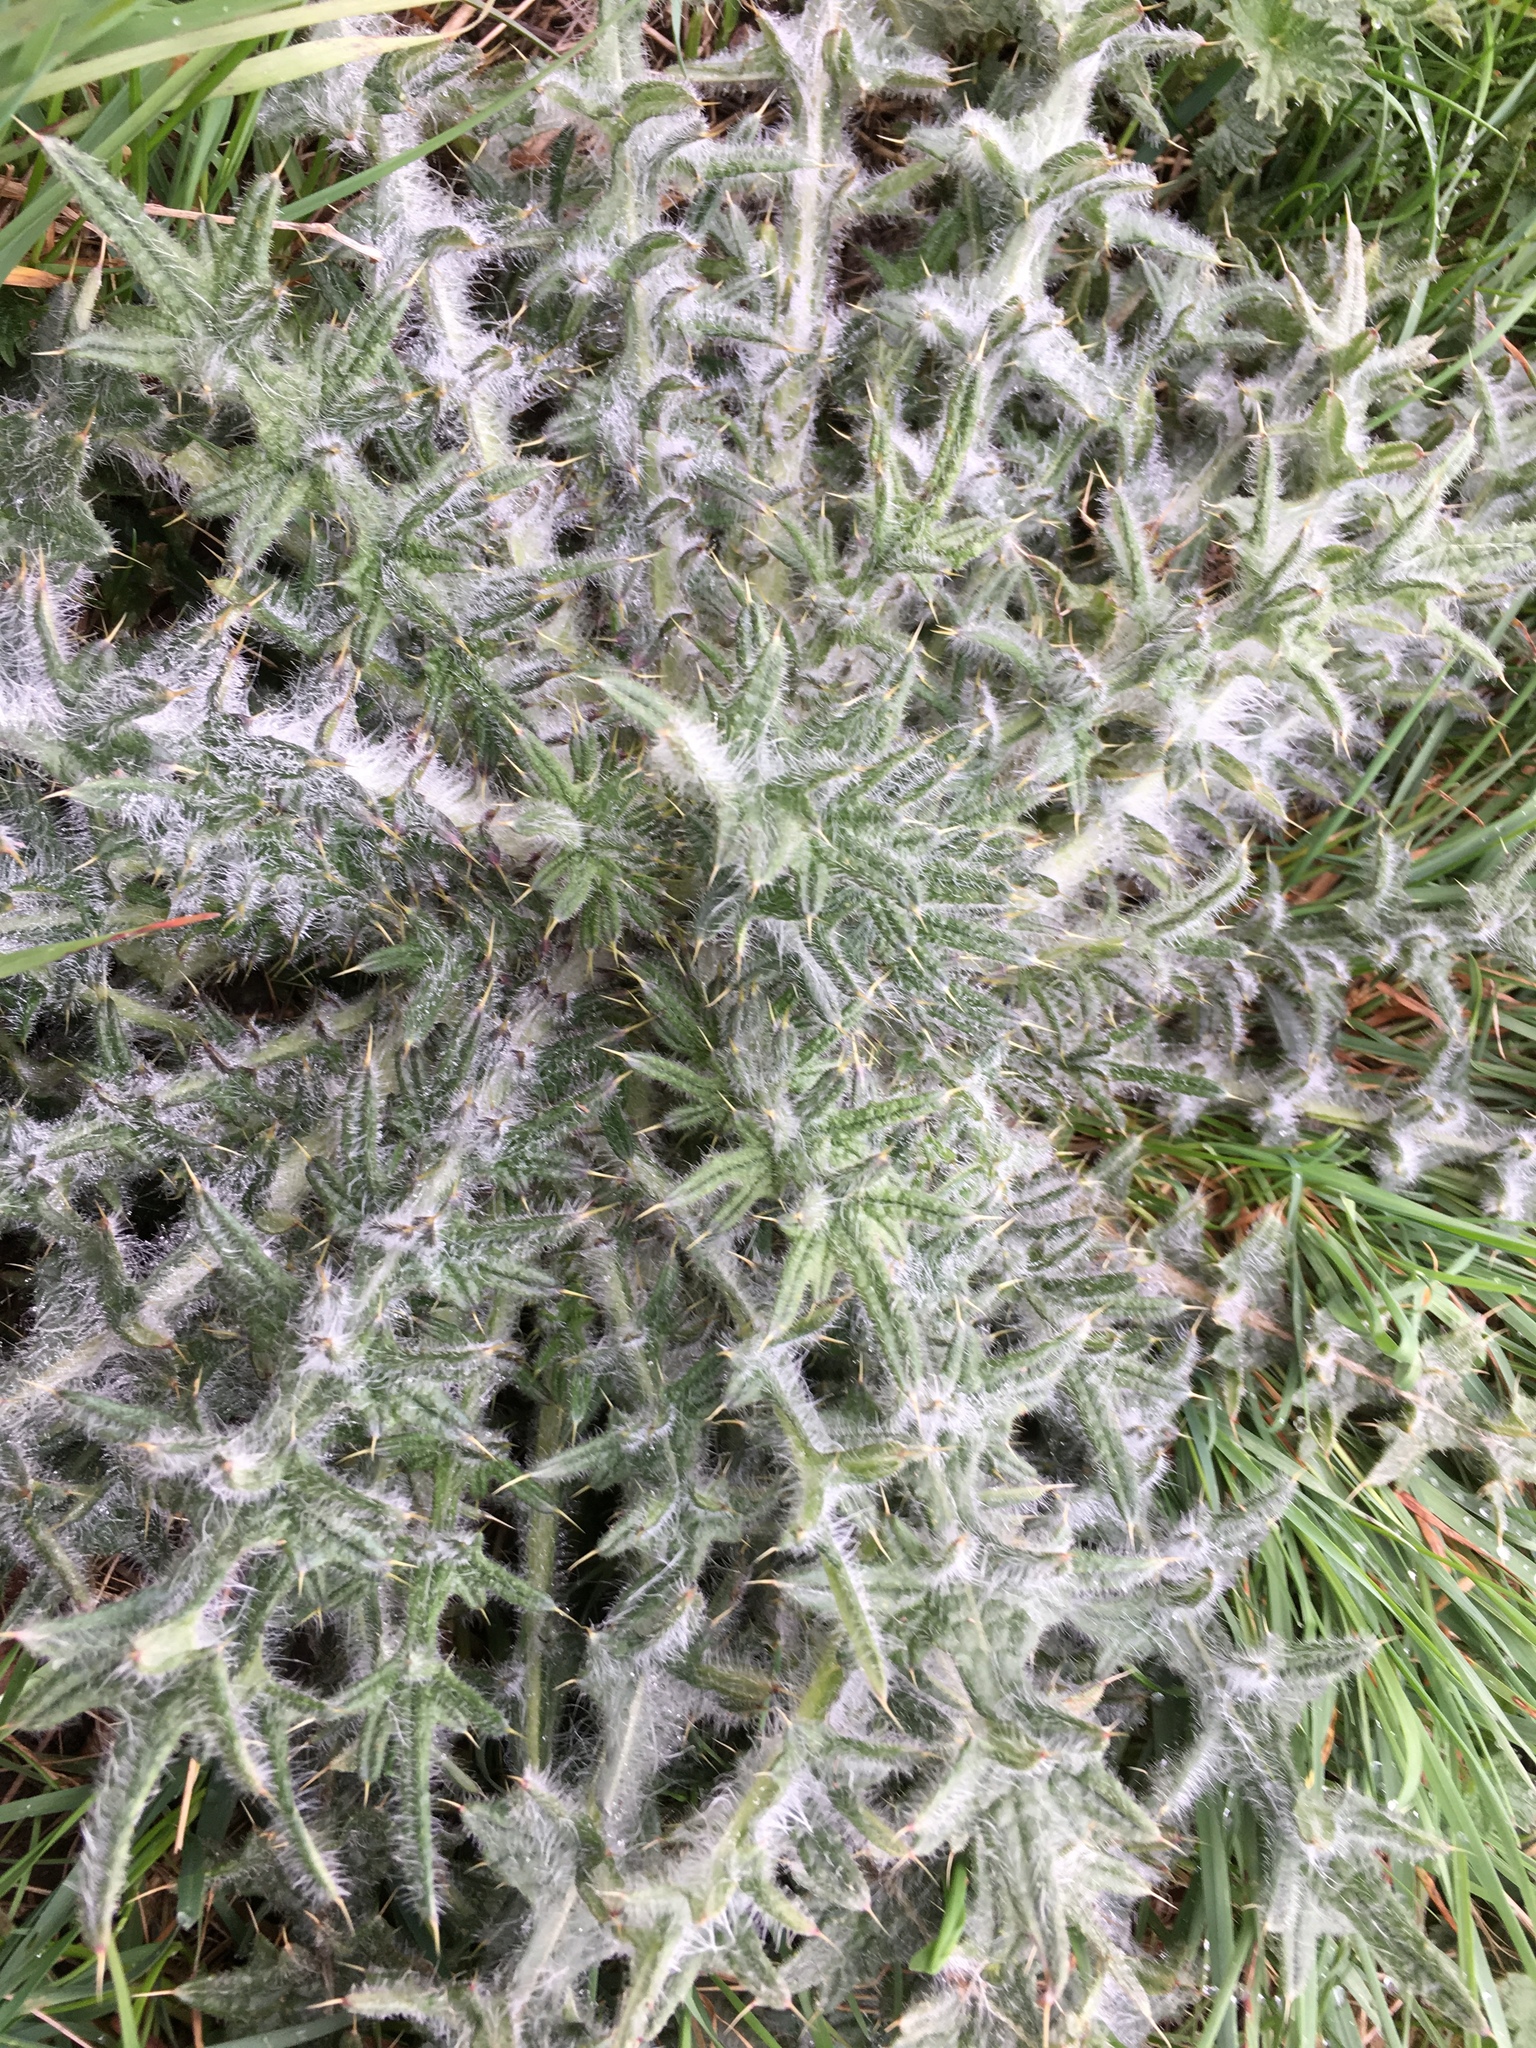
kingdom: Plantae
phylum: Tracheophyta
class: Magnoliopsida
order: Asterales
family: Asteraceae
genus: Cirsium
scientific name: Cirsium vulgare
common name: Bull thistle
